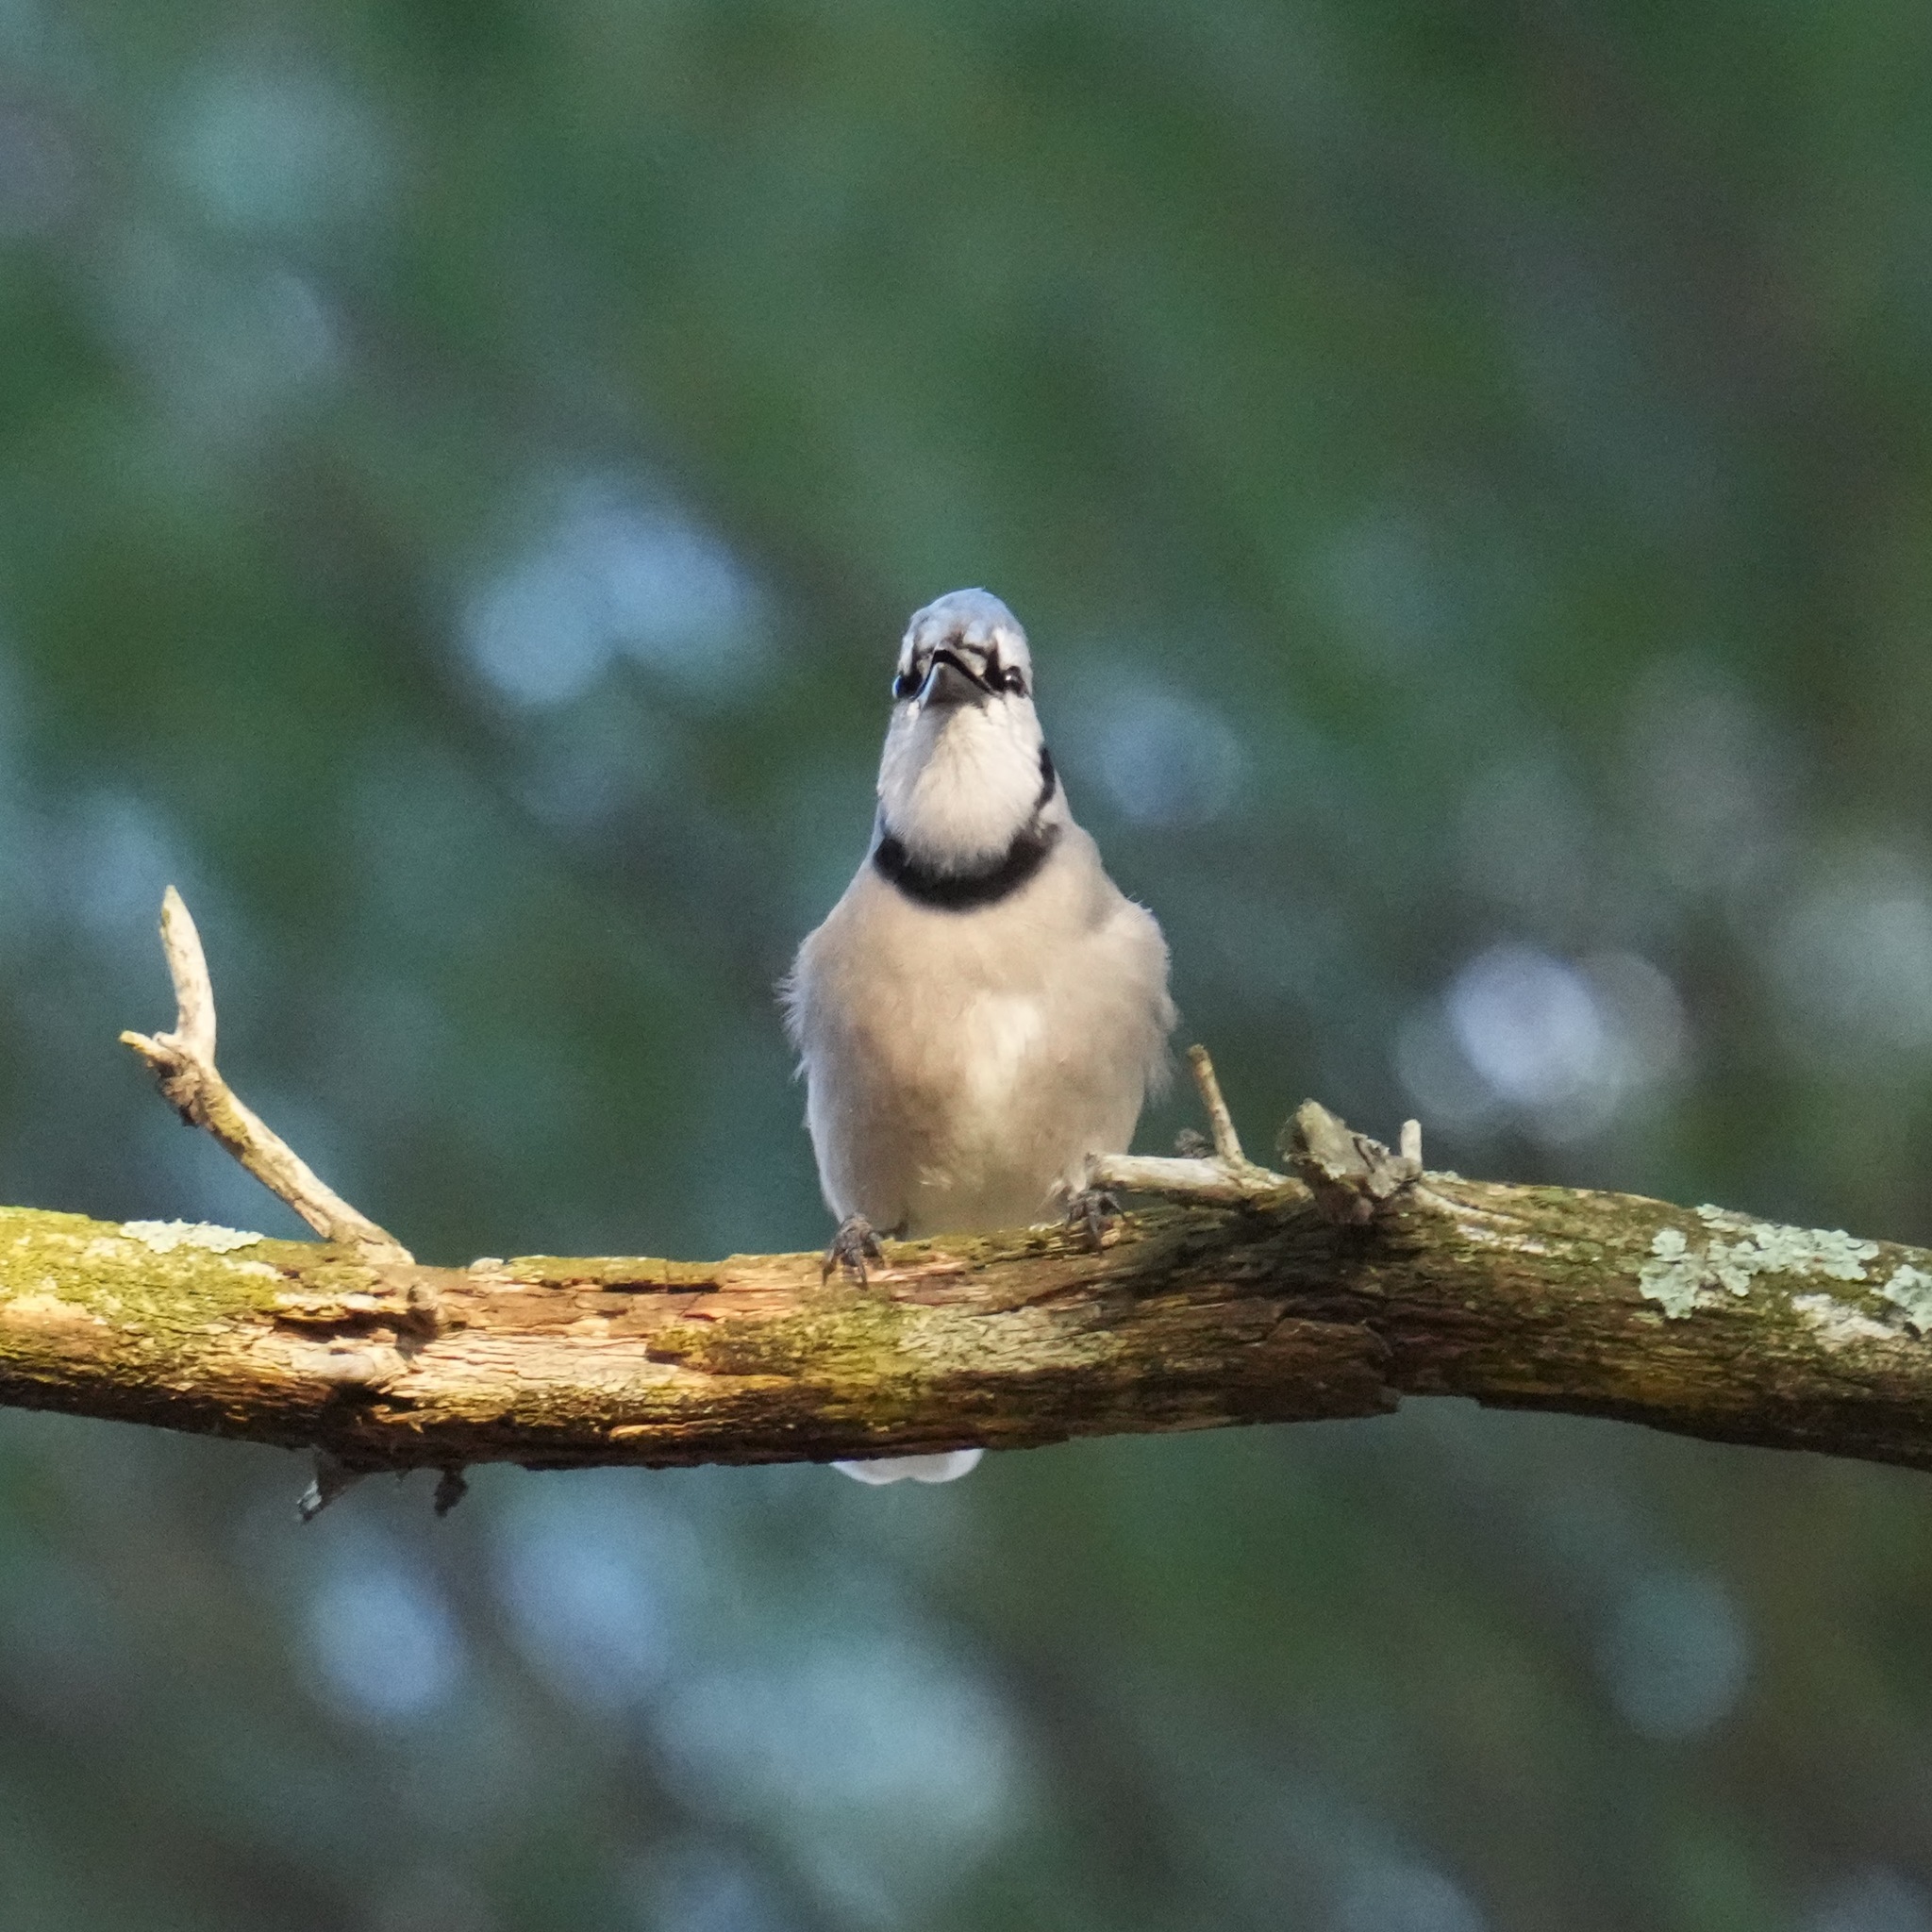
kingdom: Animalia
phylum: Chordata
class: Aves
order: Passeriformes
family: Corvidae
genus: Cyanocitta
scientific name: Cyanocitta cristata
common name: Blue jay
